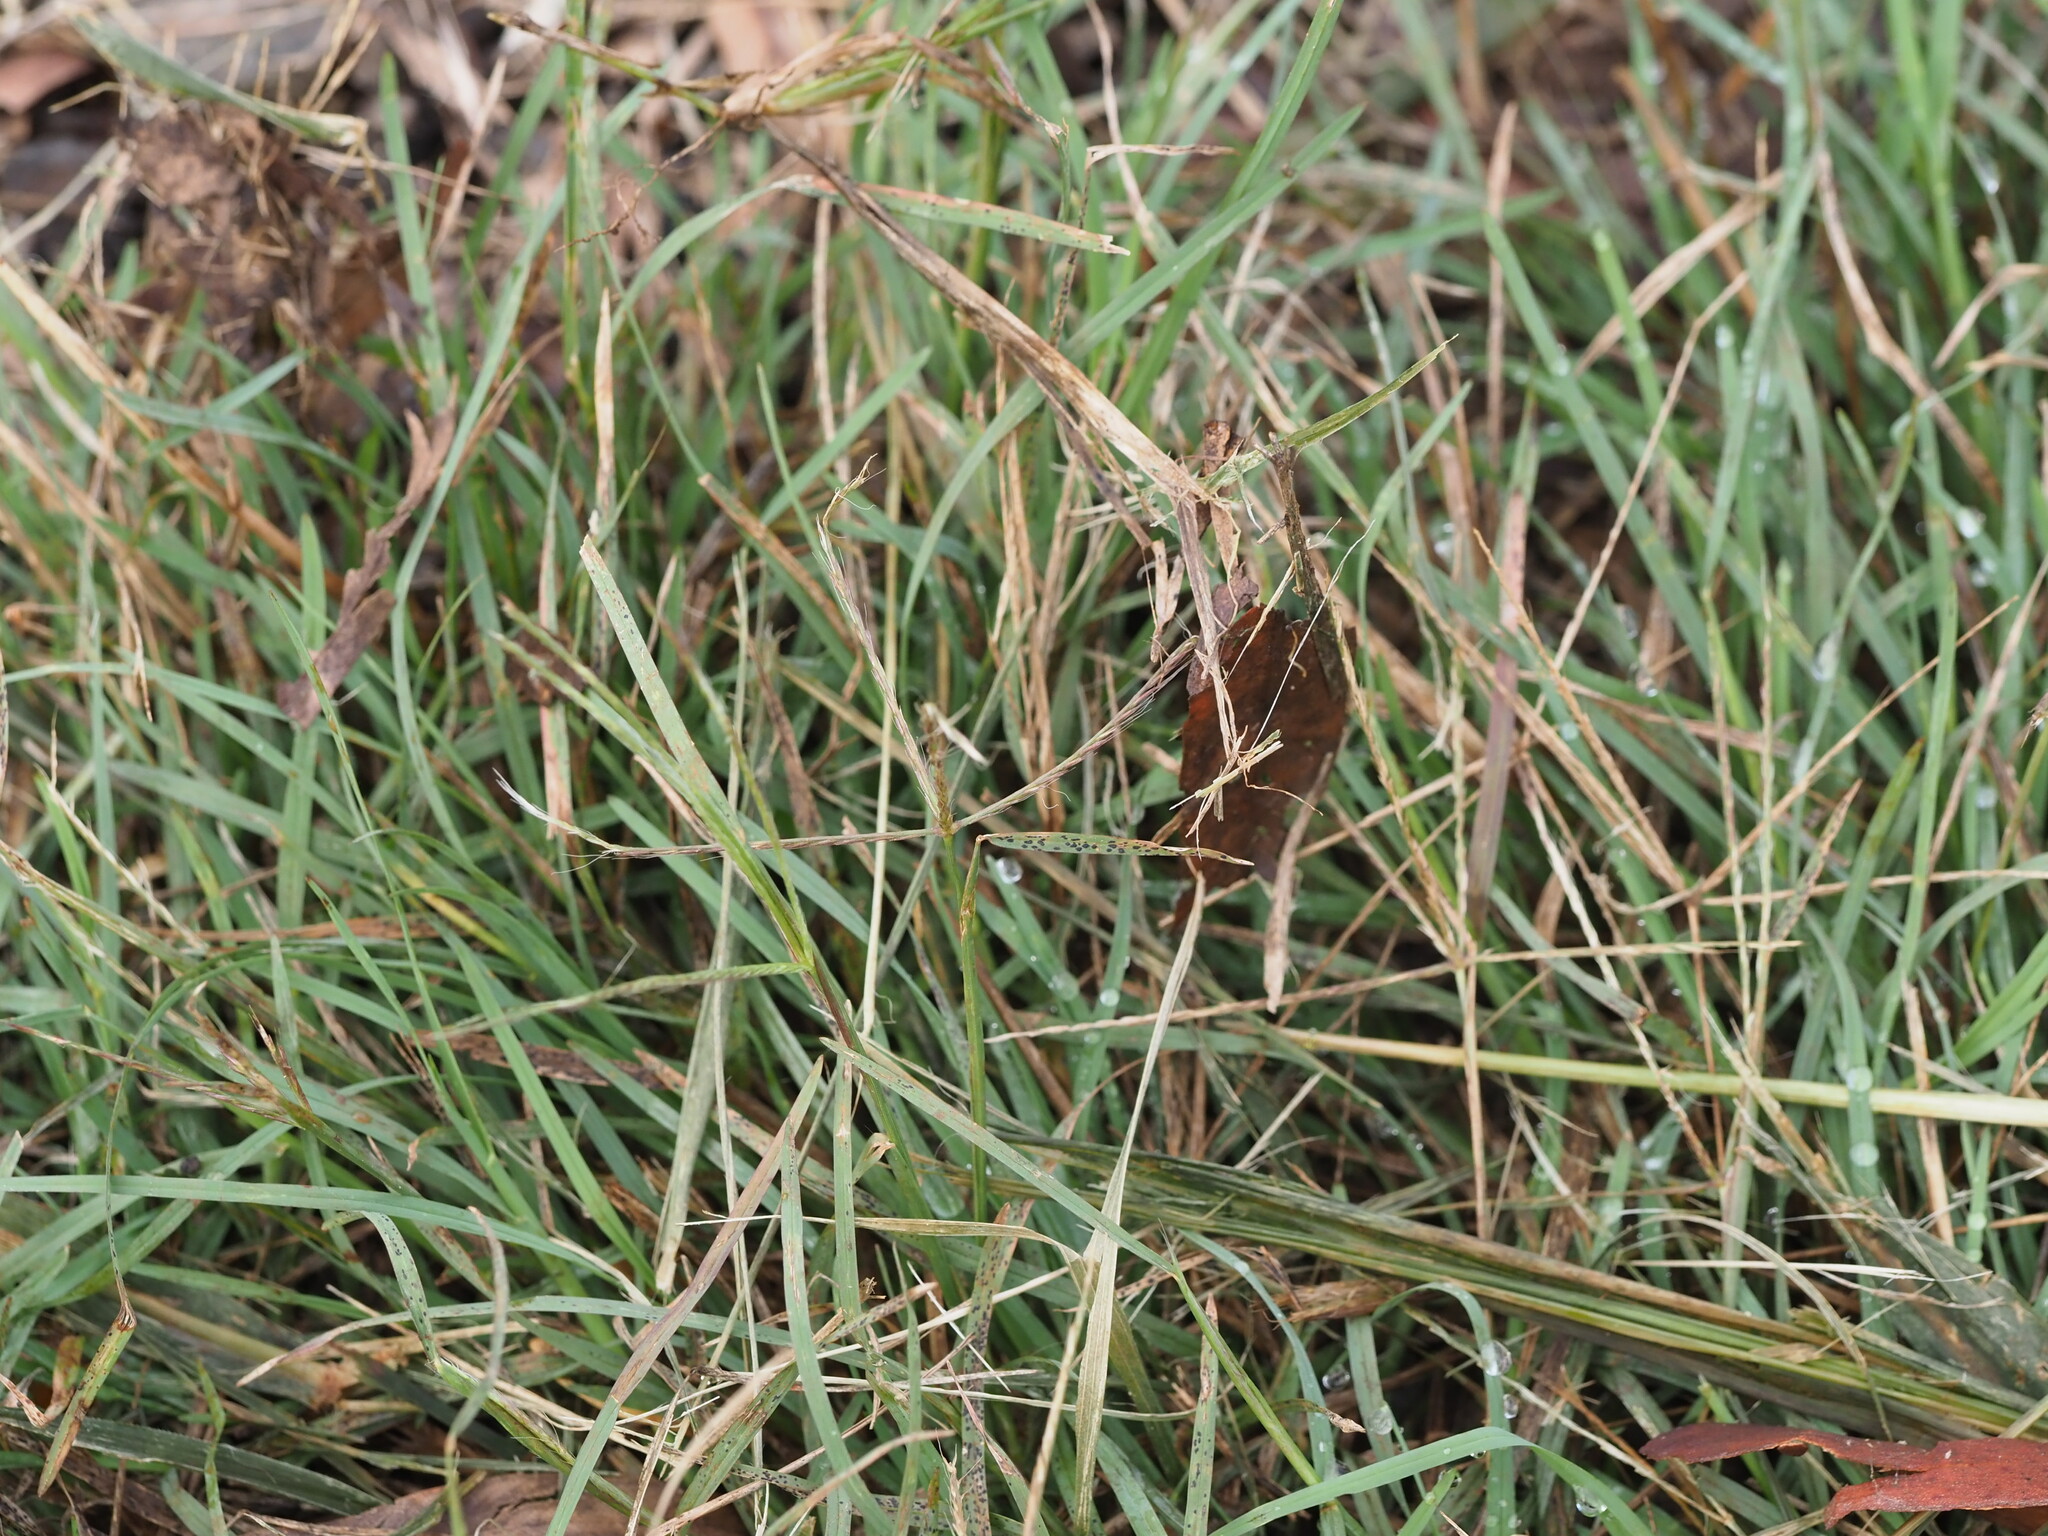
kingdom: Plantae
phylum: Tracheophyta
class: Liliopsida
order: Poales
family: Poaceae
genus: Chloris
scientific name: Chloris divaricata
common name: Spreading windmill grass
